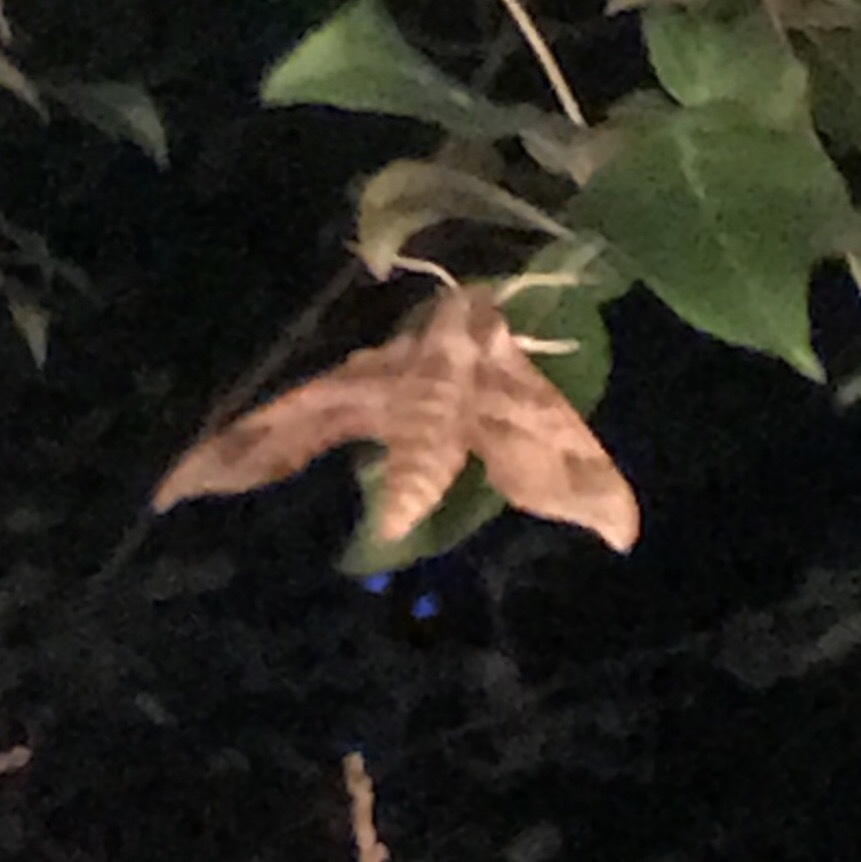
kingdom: Animalia
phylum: Arthropoda
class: Insecta
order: Lepidoptera
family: Sphingidae
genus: Darapsa
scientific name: Darapsa myron
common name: Hog sphinx
